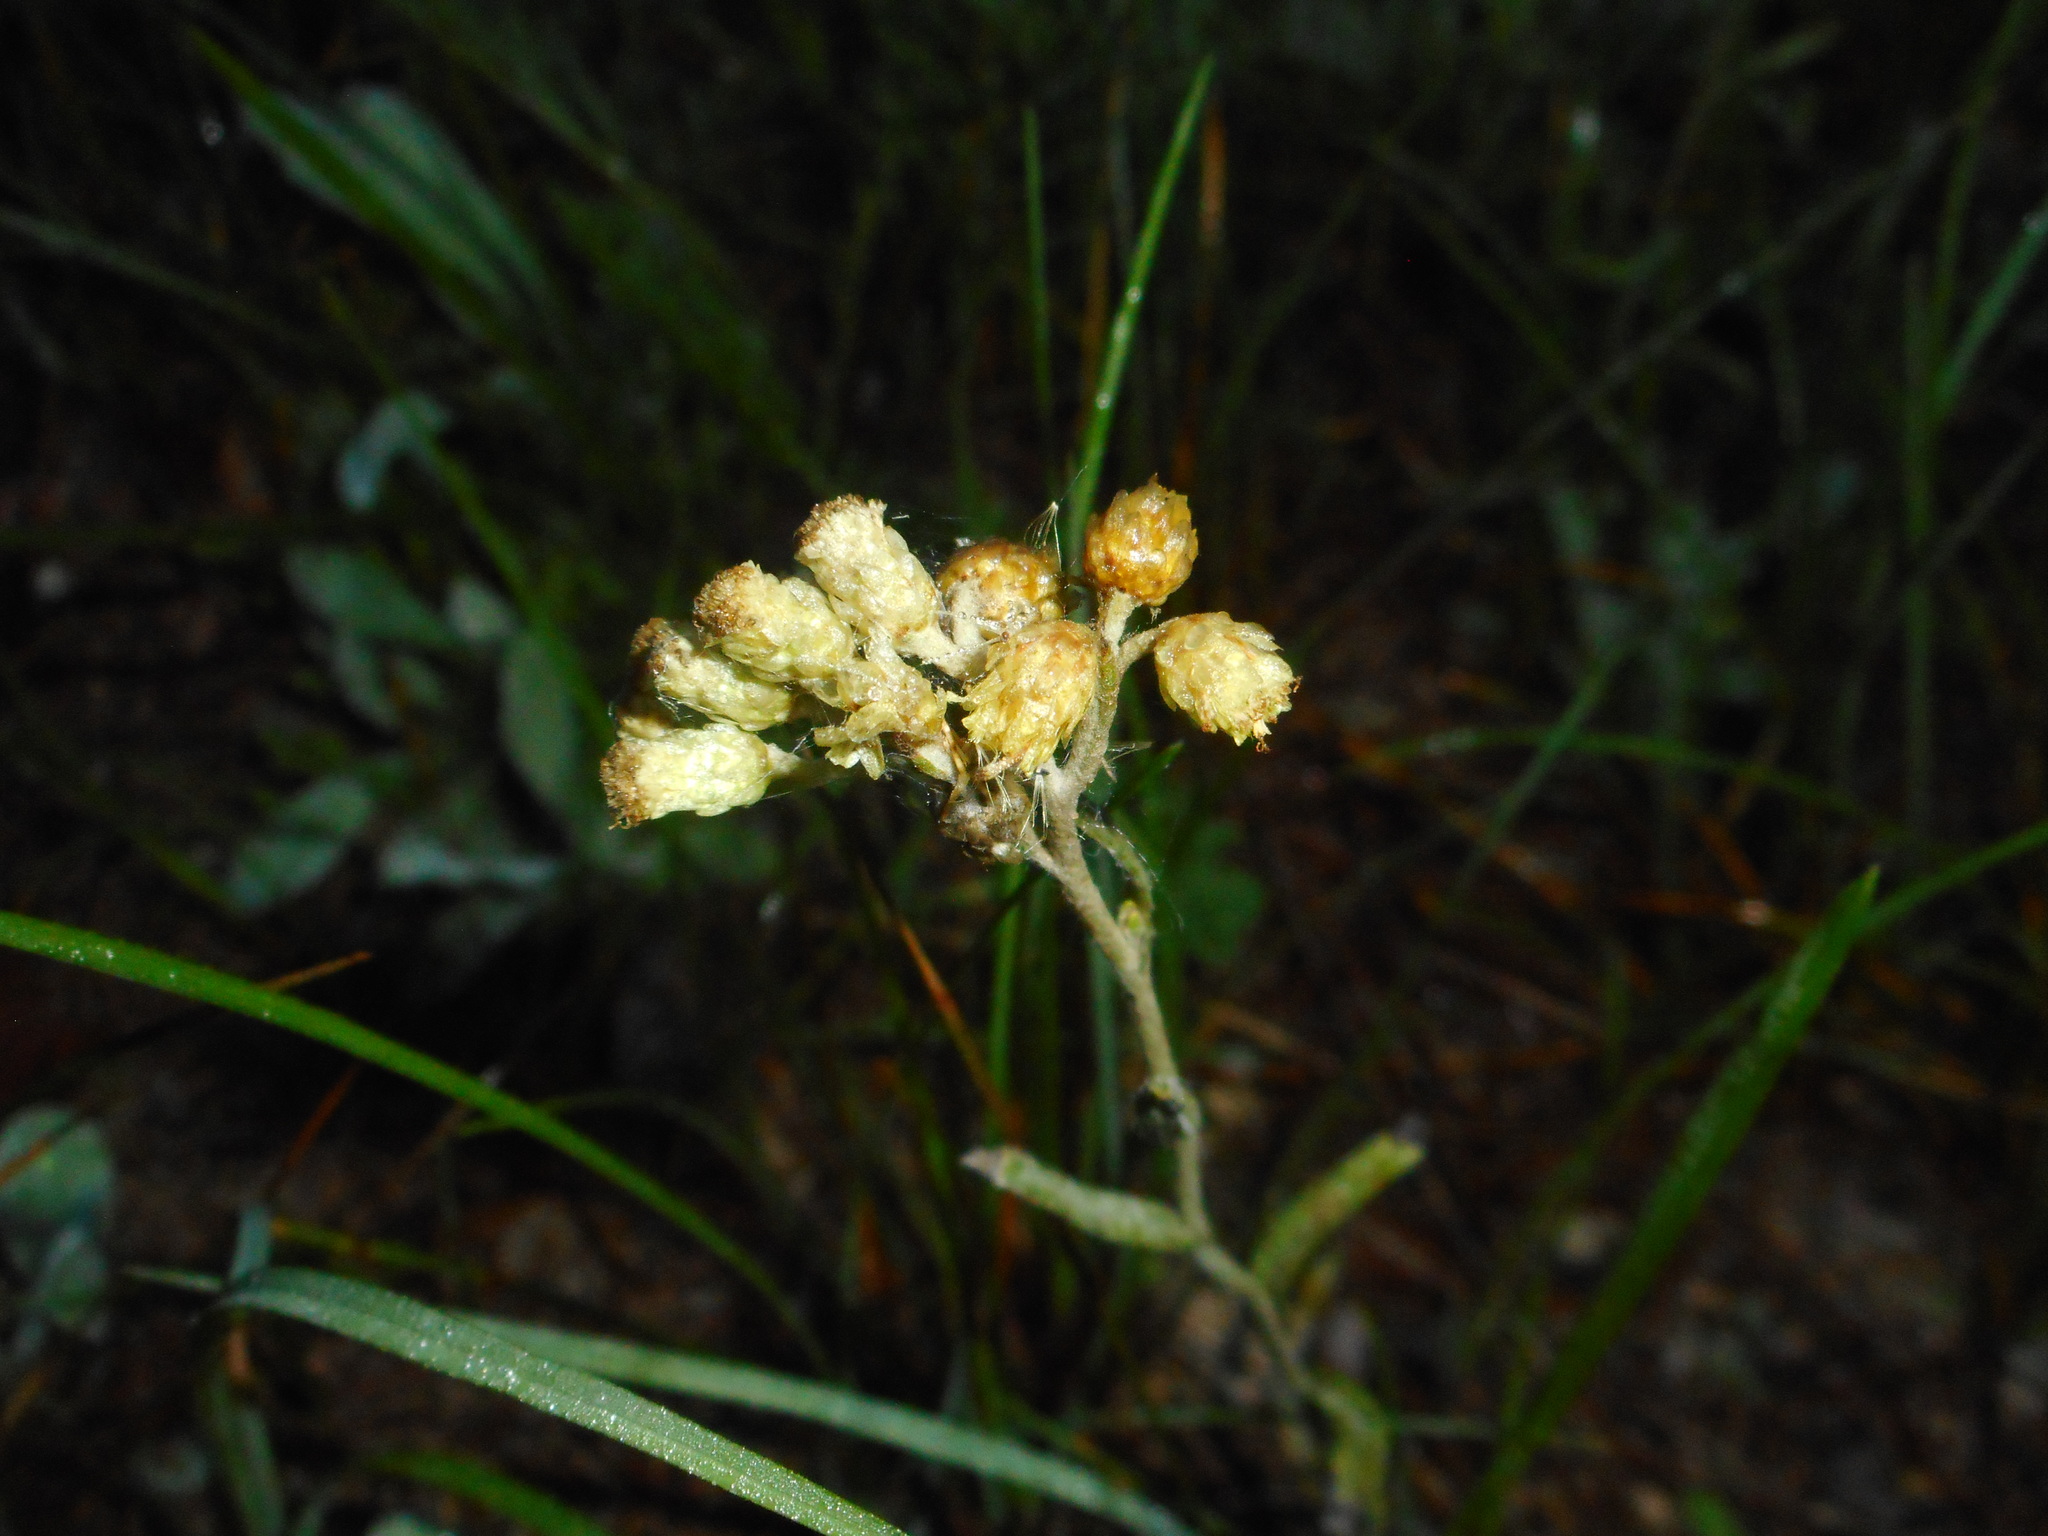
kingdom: Plantae
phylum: Tracheophyta
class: Magnoliopsida
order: Asterales
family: Asteraceae
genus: Helichrysum
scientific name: Helichrysum arenarium
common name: Strawflower
